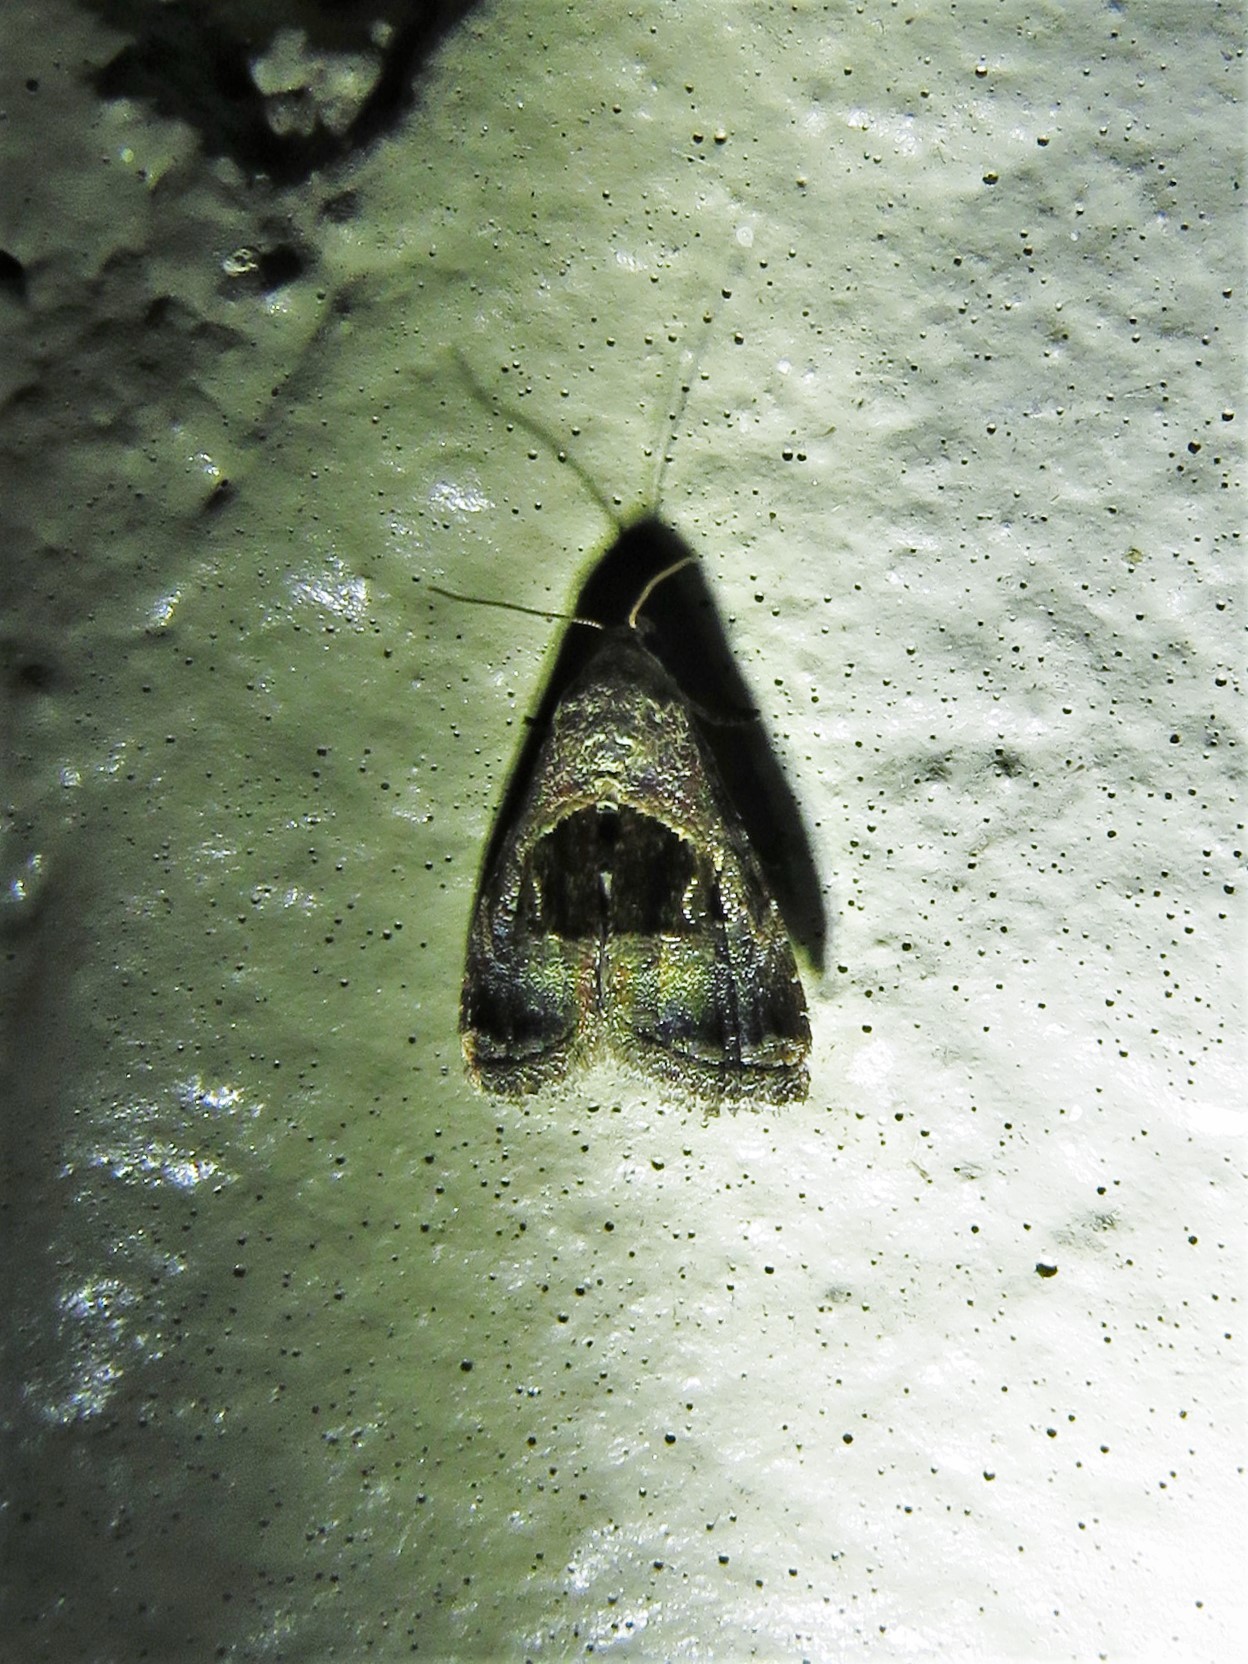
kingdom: Animalia
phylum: Arthropoda
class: Insecta
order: Lepidoptera
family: Noctuidae
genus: Tripudia
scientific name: Tripudia rectangula
